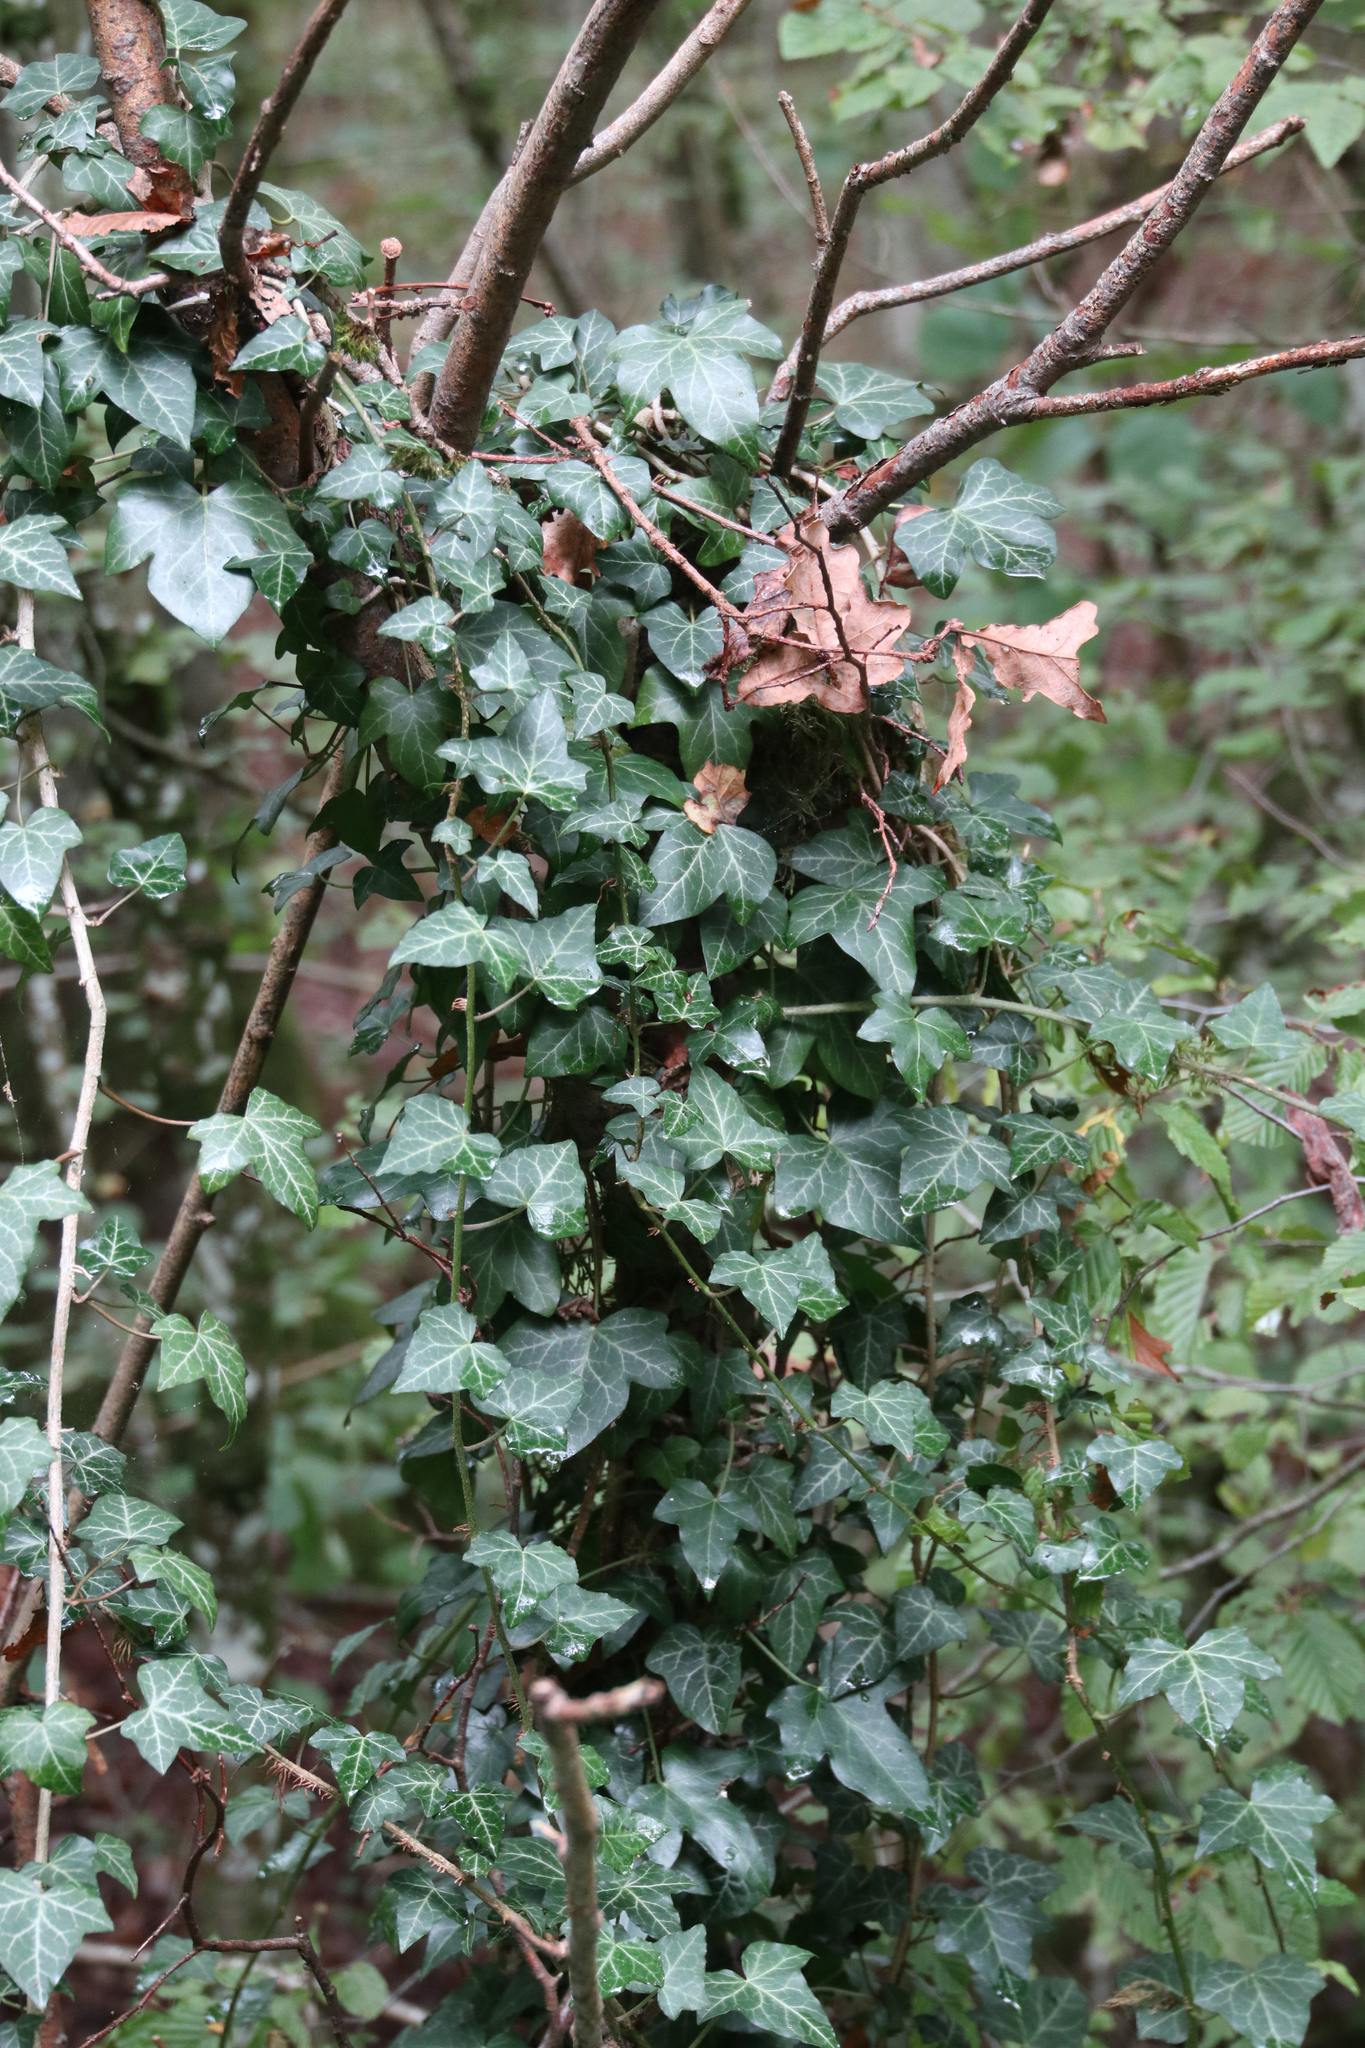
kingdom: Plantae
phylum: Tracheophyta
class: Magnoliopsida
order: Apiales
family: Araliaceae
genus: Hedera
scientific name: Hedera helix
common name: Ivy
